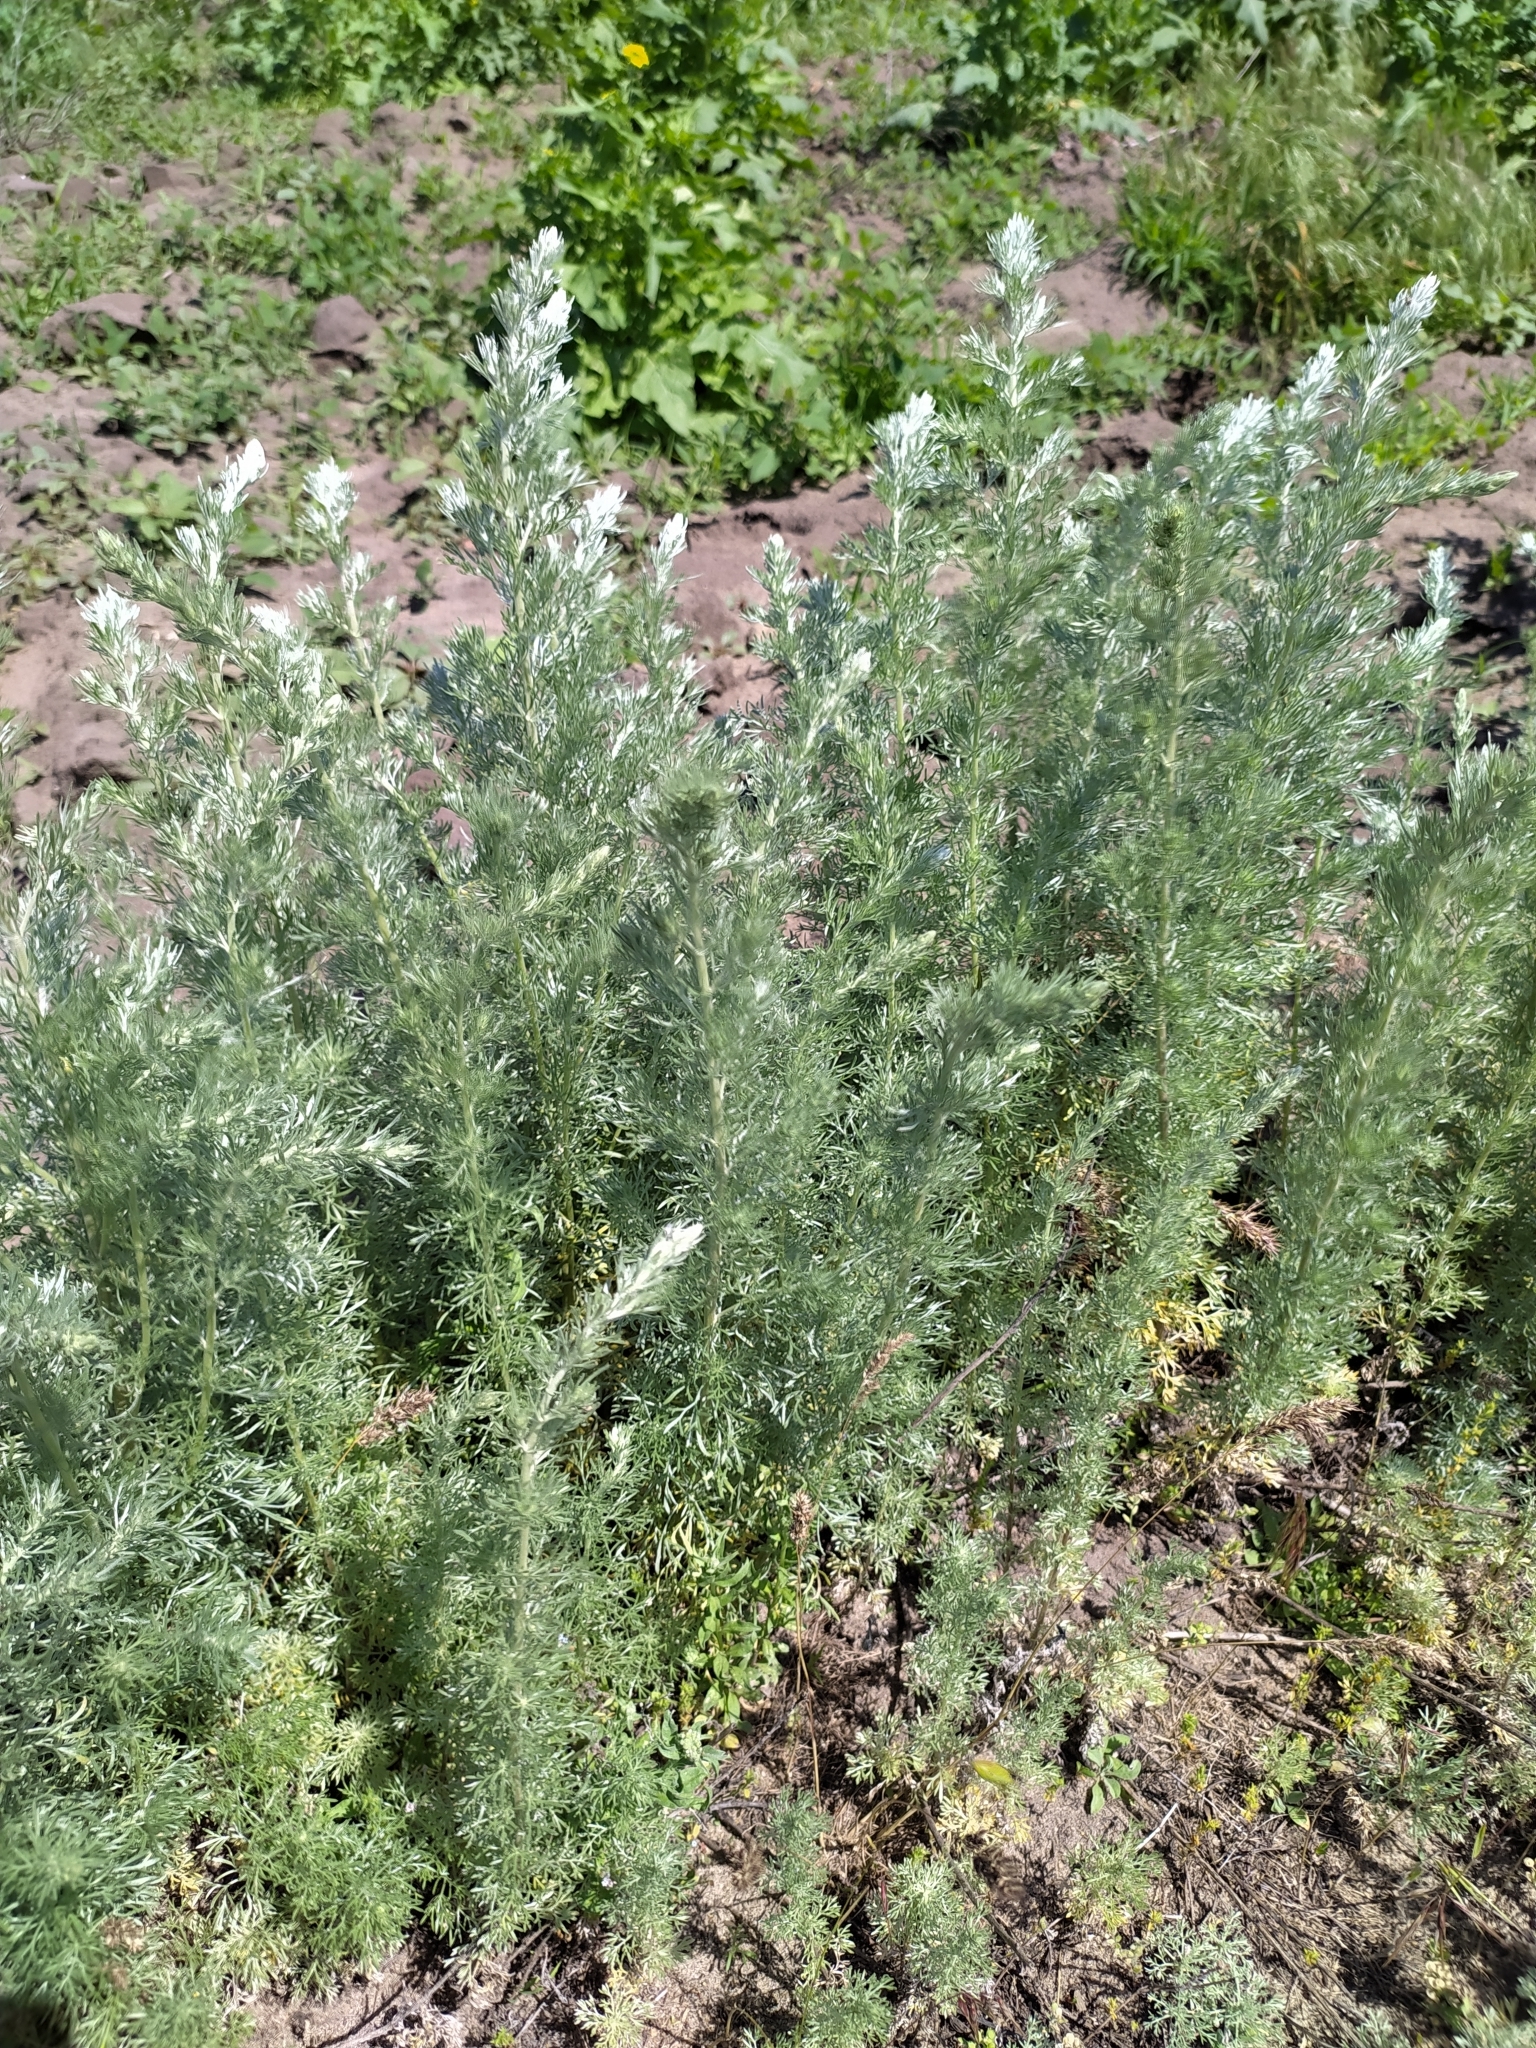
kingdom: Plantae
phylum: Tracheophyta
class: Magnoliopsida
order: Asterales
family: Asteraceae
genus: Artemisia
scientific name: Artemisia austriaca
